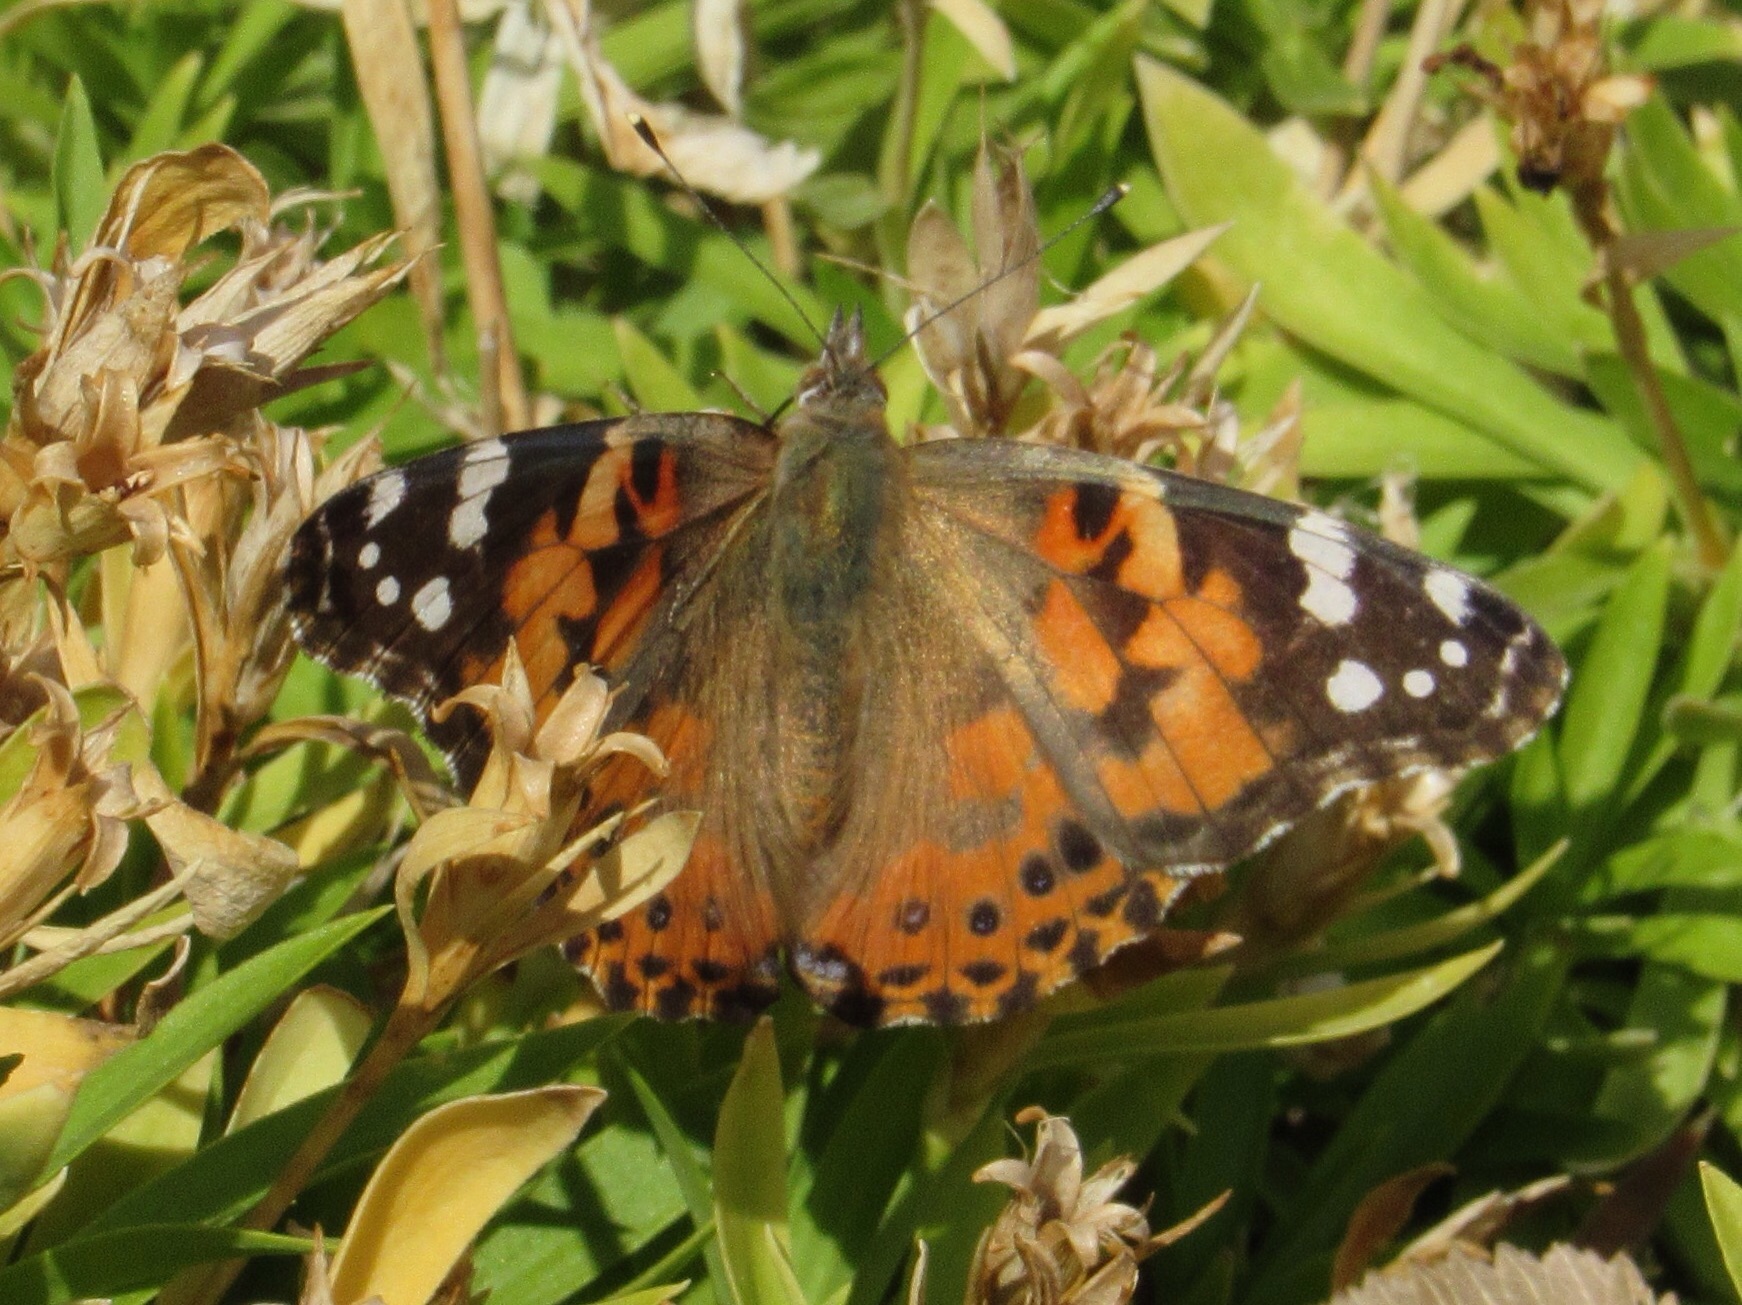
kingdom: Animalia
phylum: Arthropoda
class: Insecta
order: Lepidoptera
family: Nymphalidae
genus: Vanessa
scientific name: Vanessa cardui
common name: Painted lady
